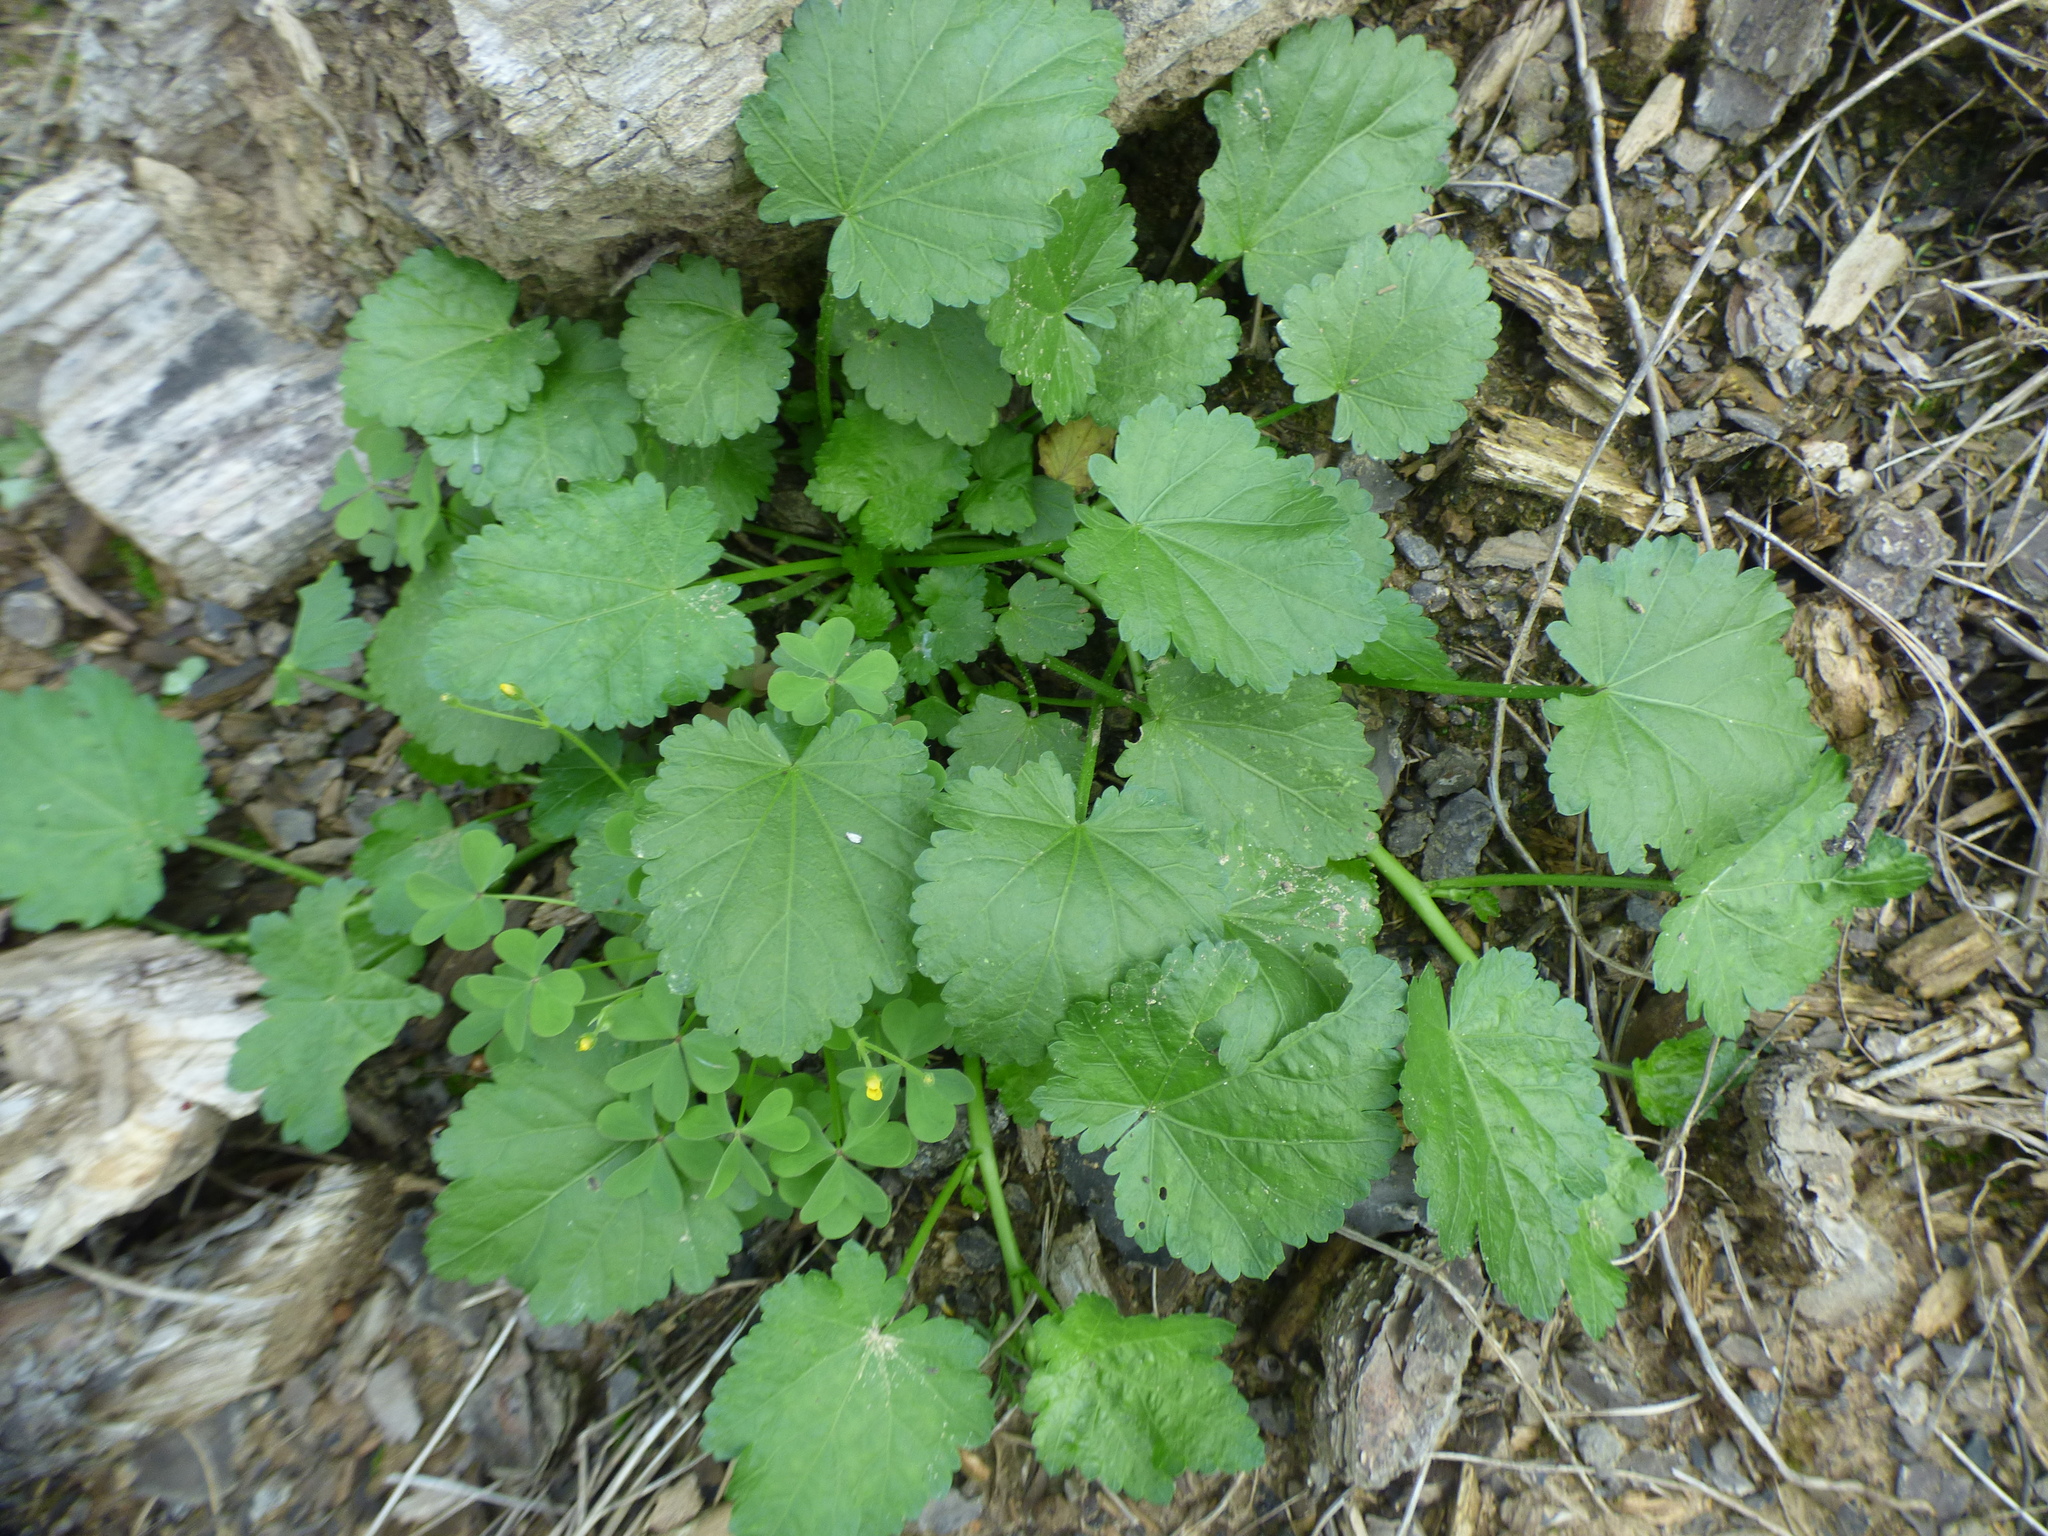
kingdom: Plantae
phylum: Tracheophyta
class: Magnoliopsida
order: Malvales
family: Malvaceae
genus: Modiola
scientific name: Modiola caroliniana
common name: Carolina bristlemallow
